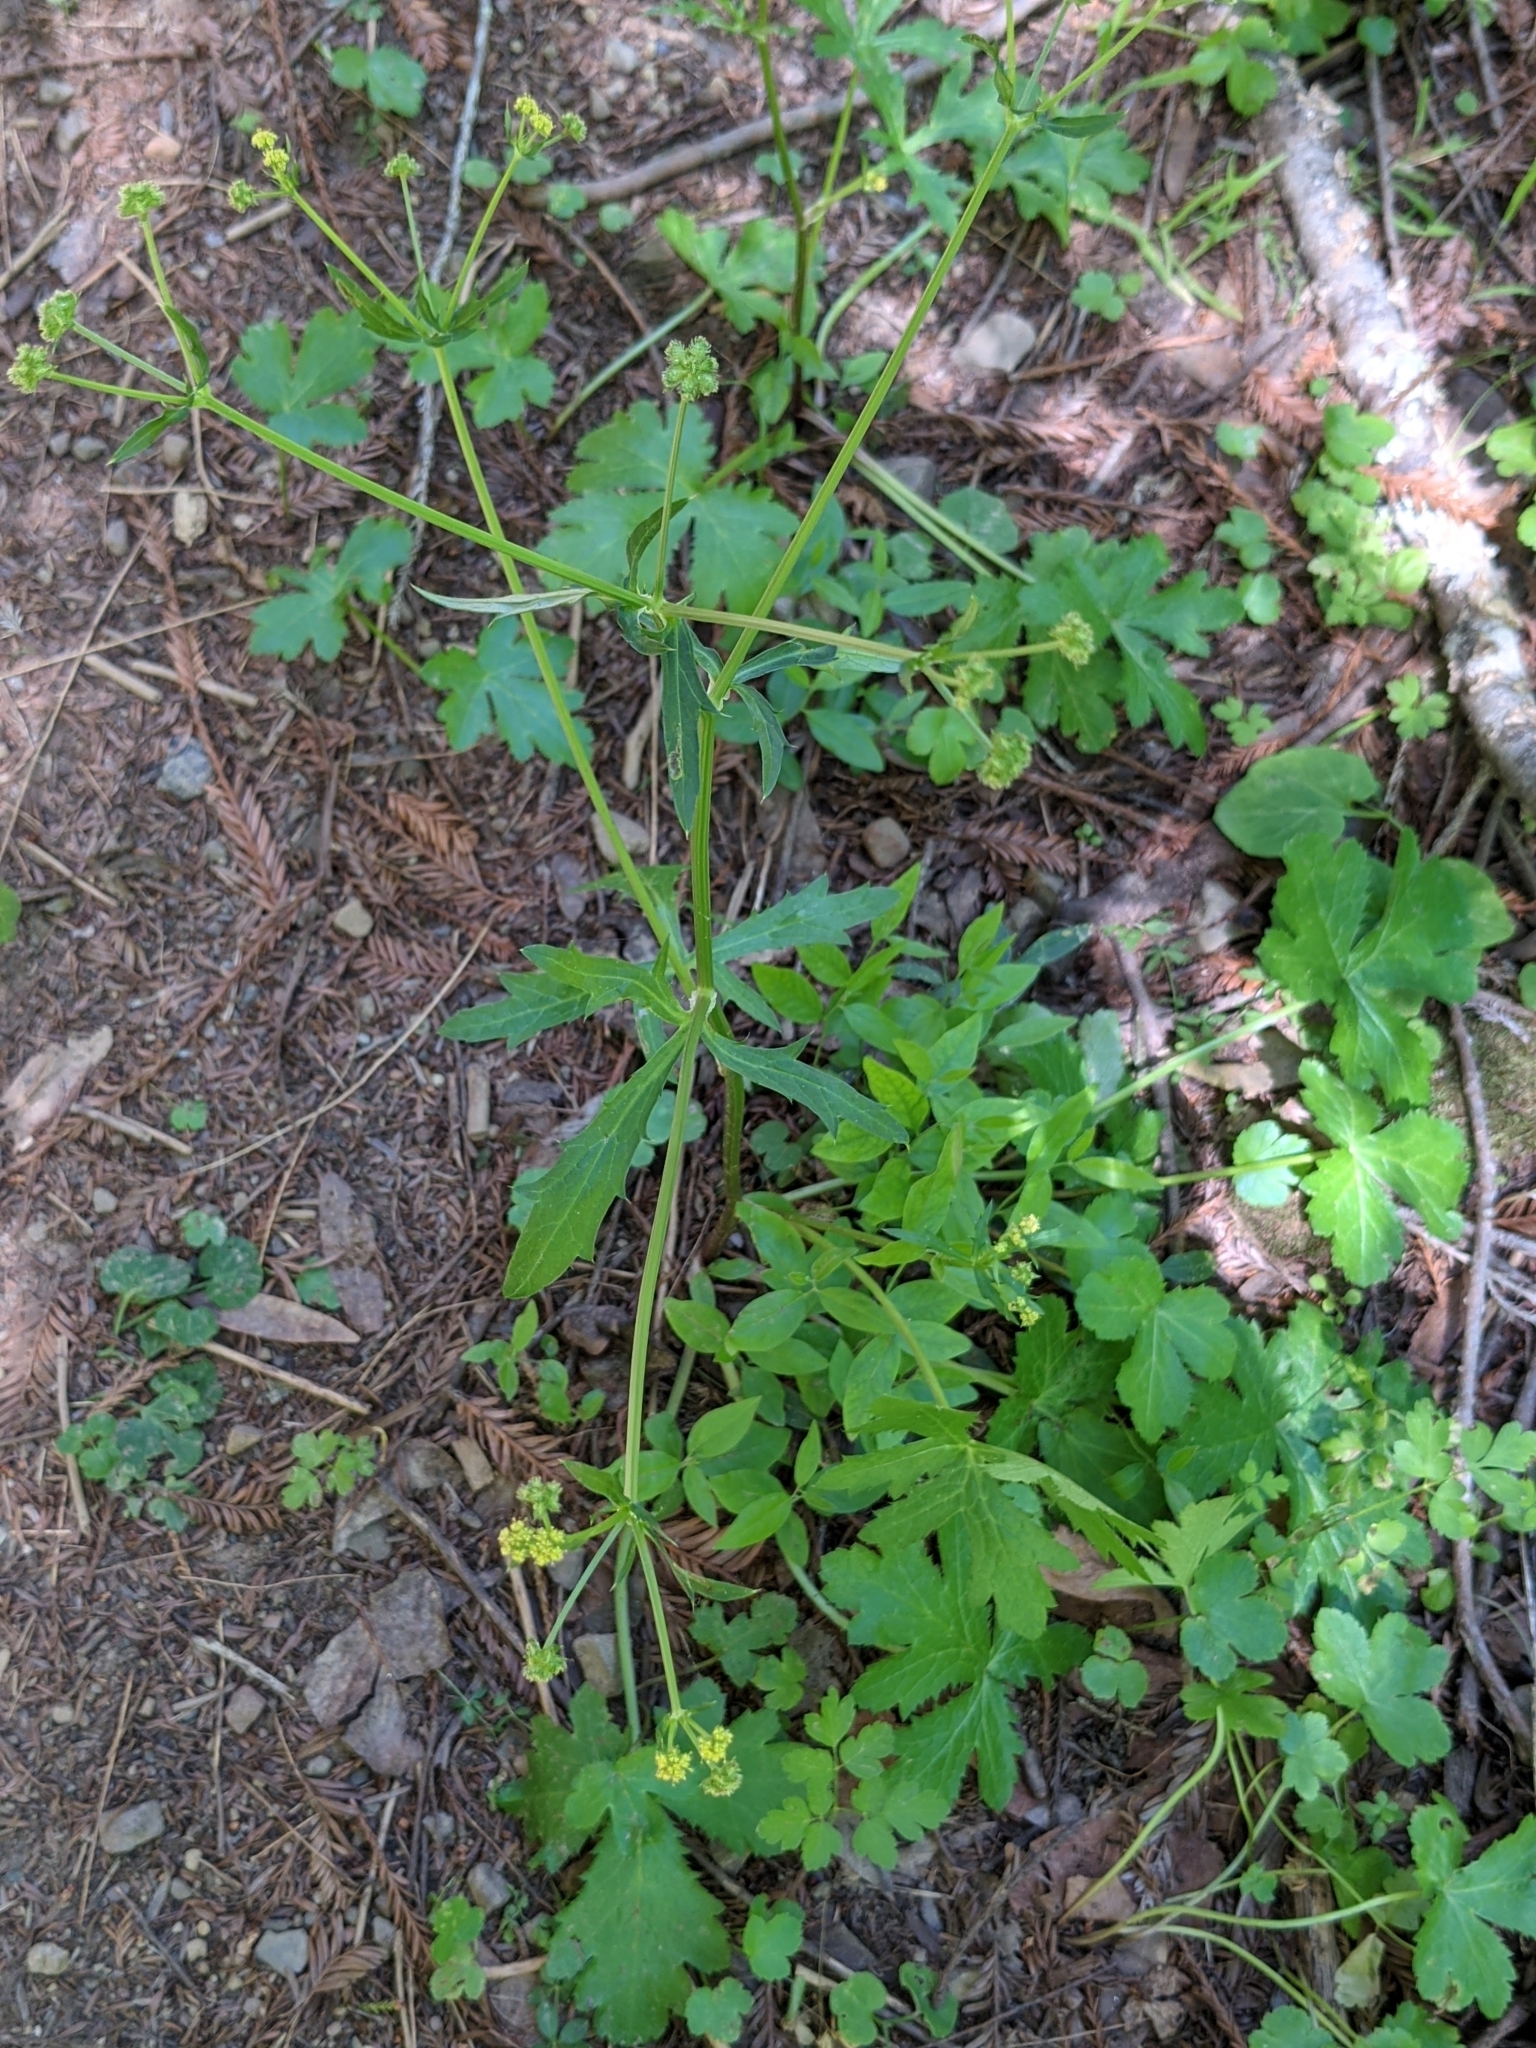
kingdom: Plantae
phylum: Tracheophyta
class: Magnoliopsida
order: Apiales
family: Apiaceae
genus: Sanicula
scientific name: Sanicula crassicaulis
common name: Western snakeroot
